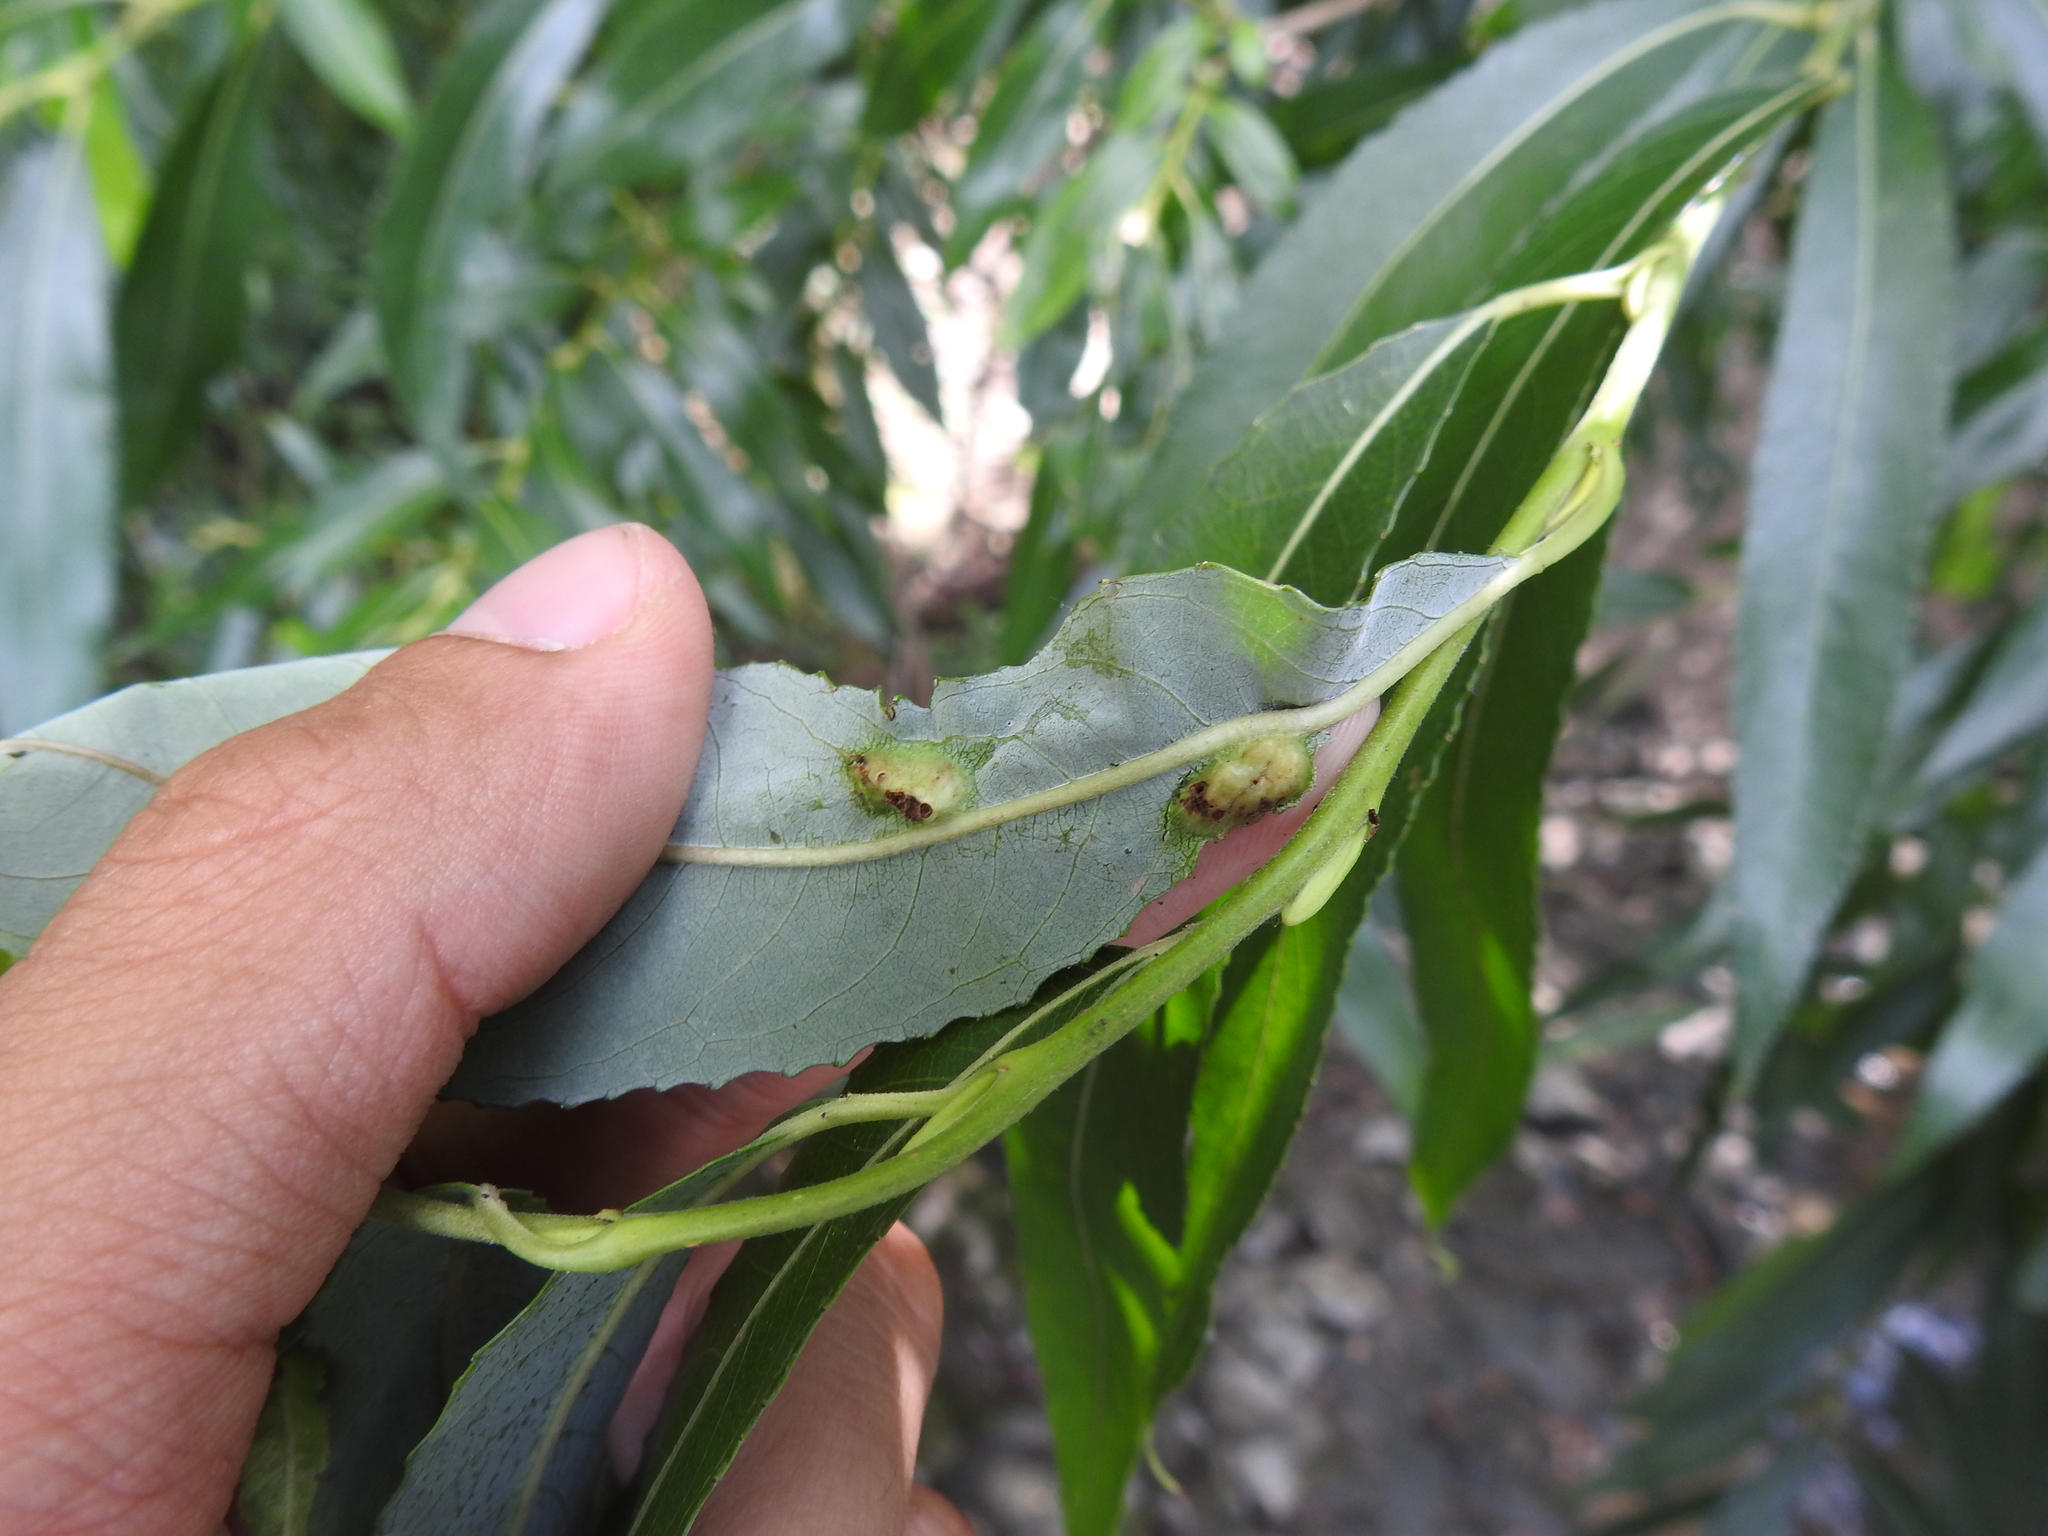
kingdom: Animalia
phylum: Arthropoda
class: Insecta
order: Hymenoptera
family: Tenthredinidae
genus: Pontania
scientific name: Pontania proxima
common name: Common sawfly
